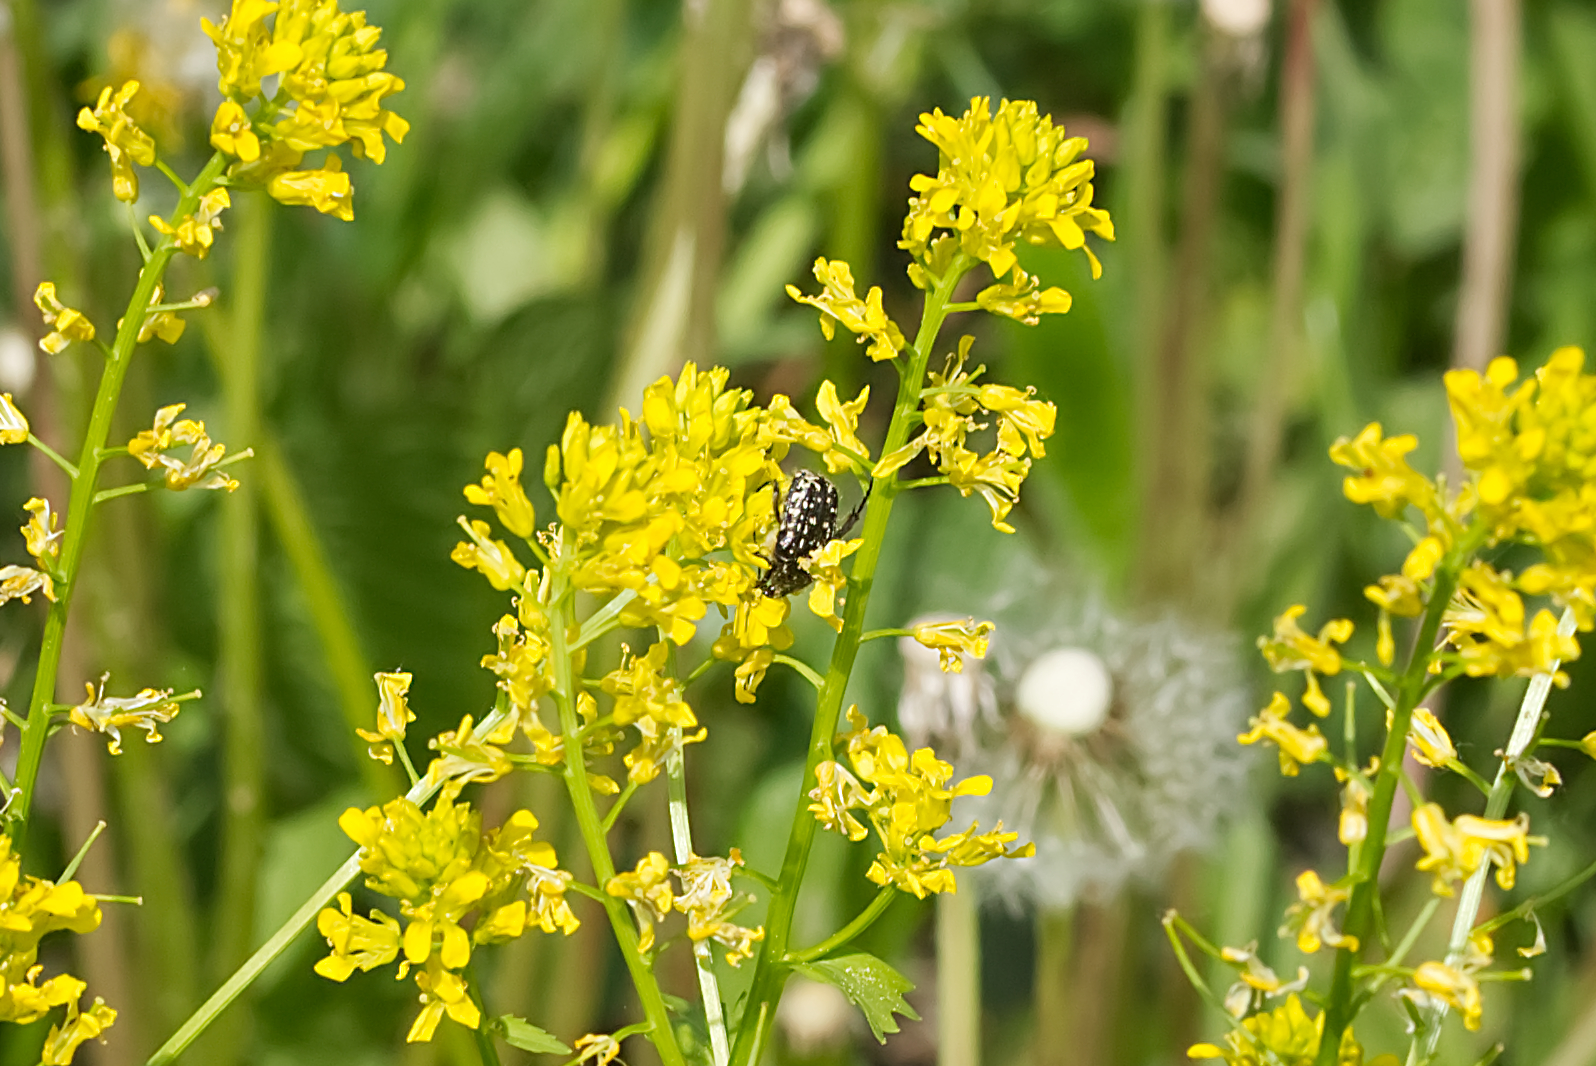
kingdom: Animalia
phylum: Arthropoda
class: Insecta
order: Coleoptera
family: Scarabaeidae
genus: Oxythyrea
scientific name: Oxythyrea funesta
